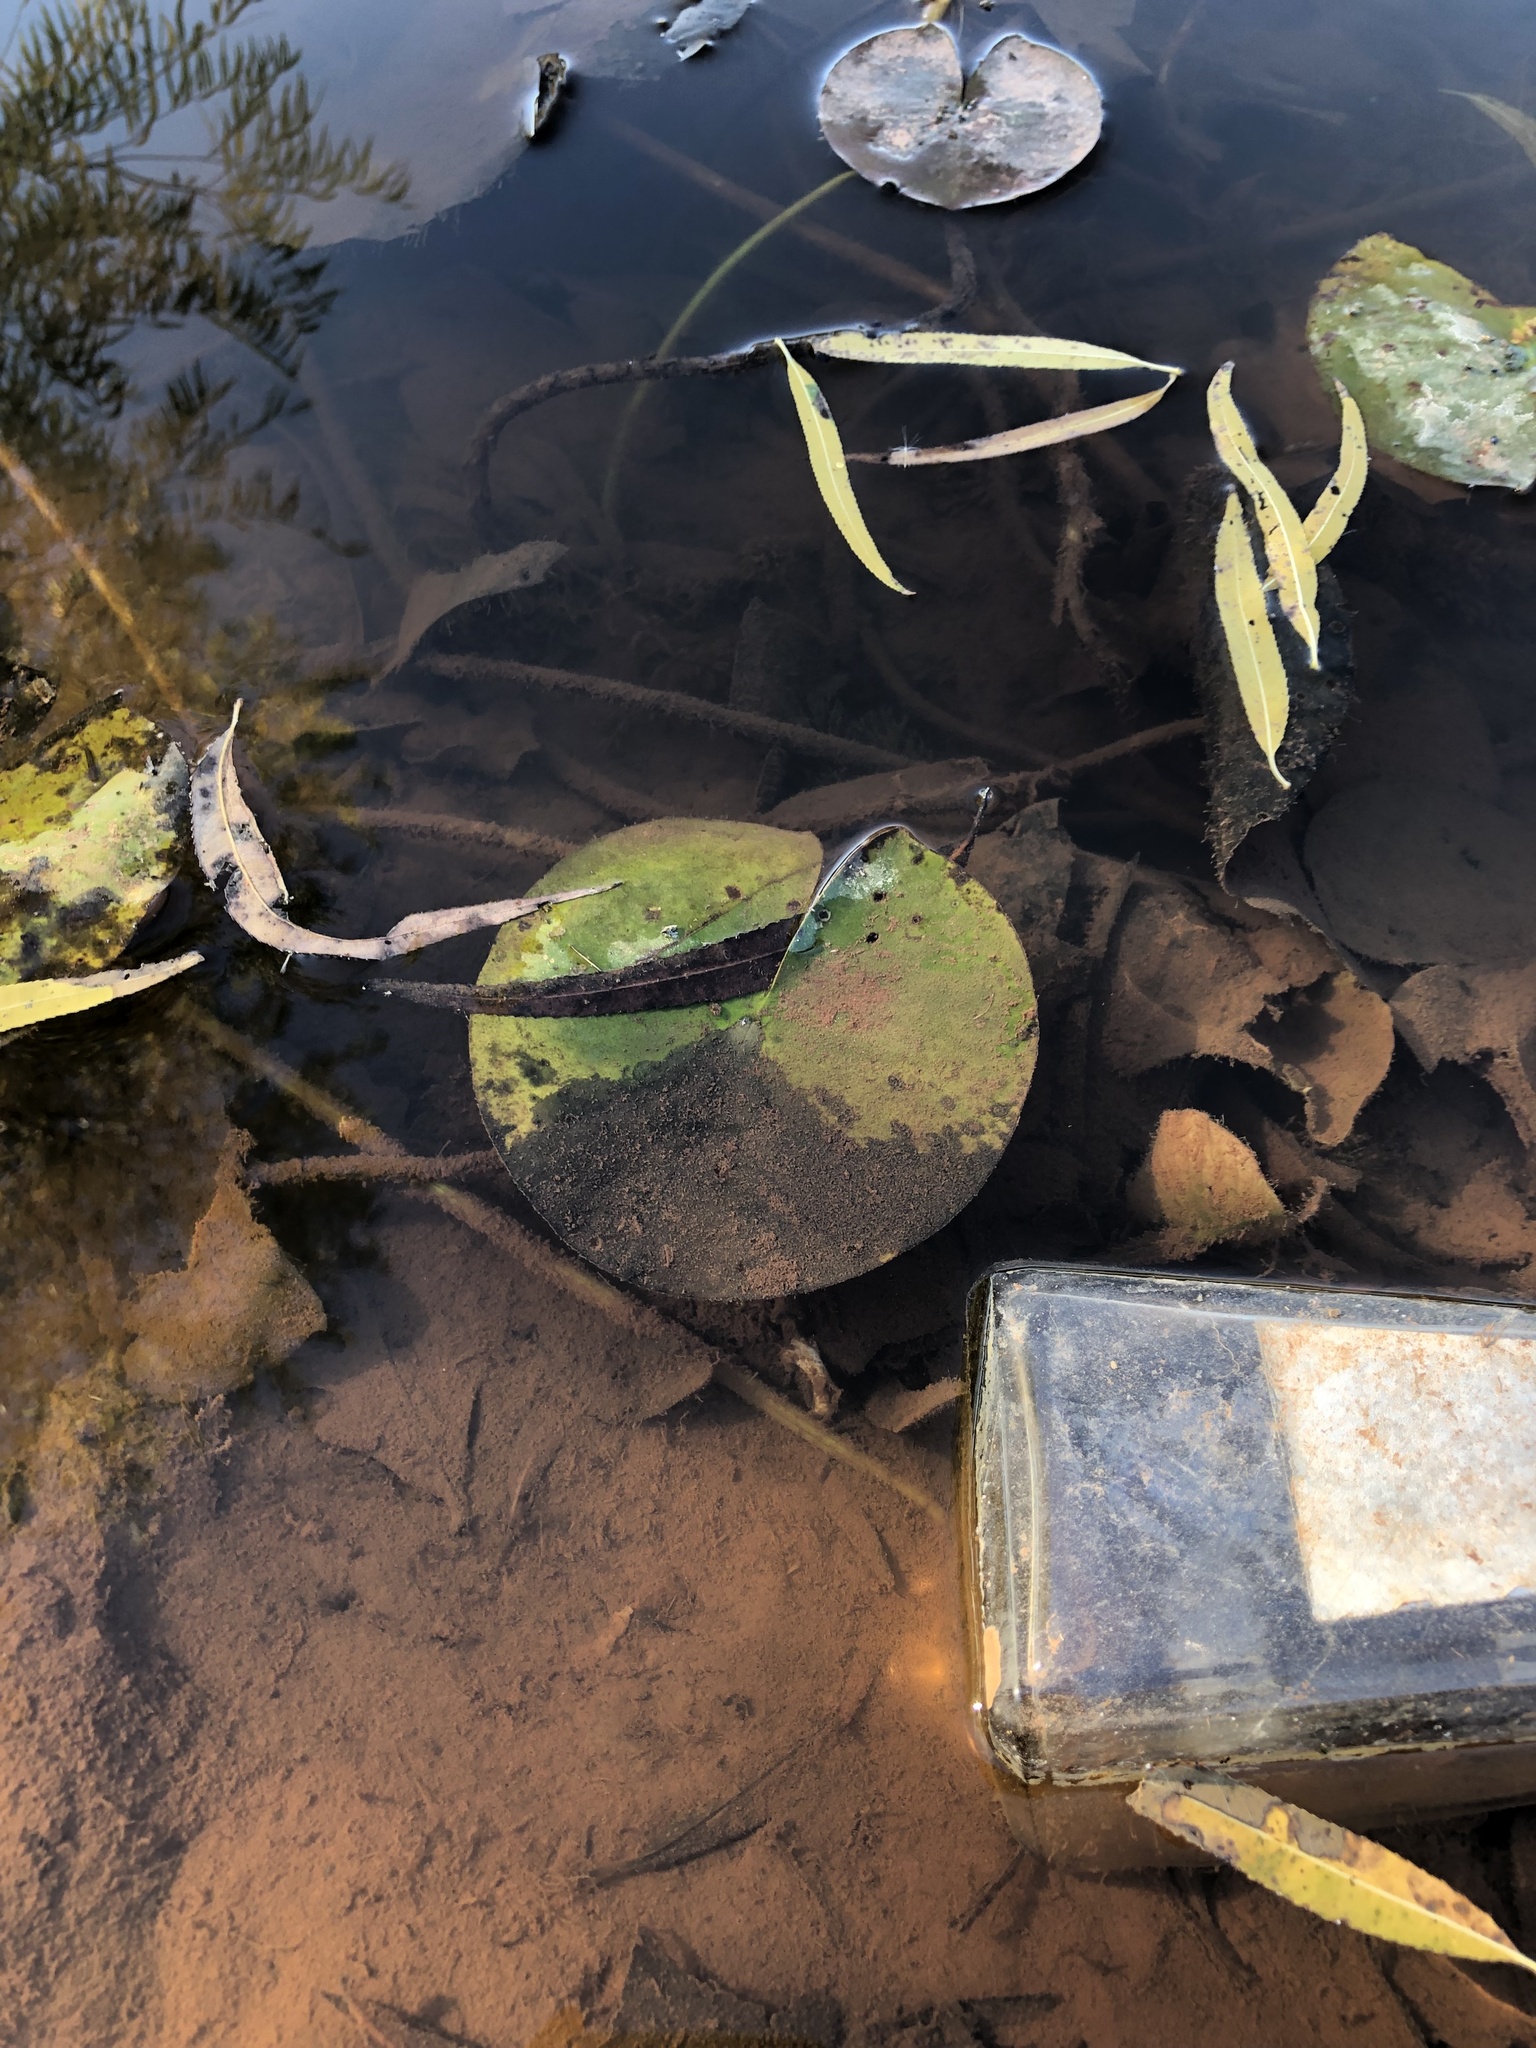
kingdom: Plantae
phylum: Tracheophyta
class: Magnoliopsida
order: Nymphaeales
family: Nymphaeaceae
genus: Nymphaea
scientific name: Nymphaea odorata
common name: Fragrant water-lily
